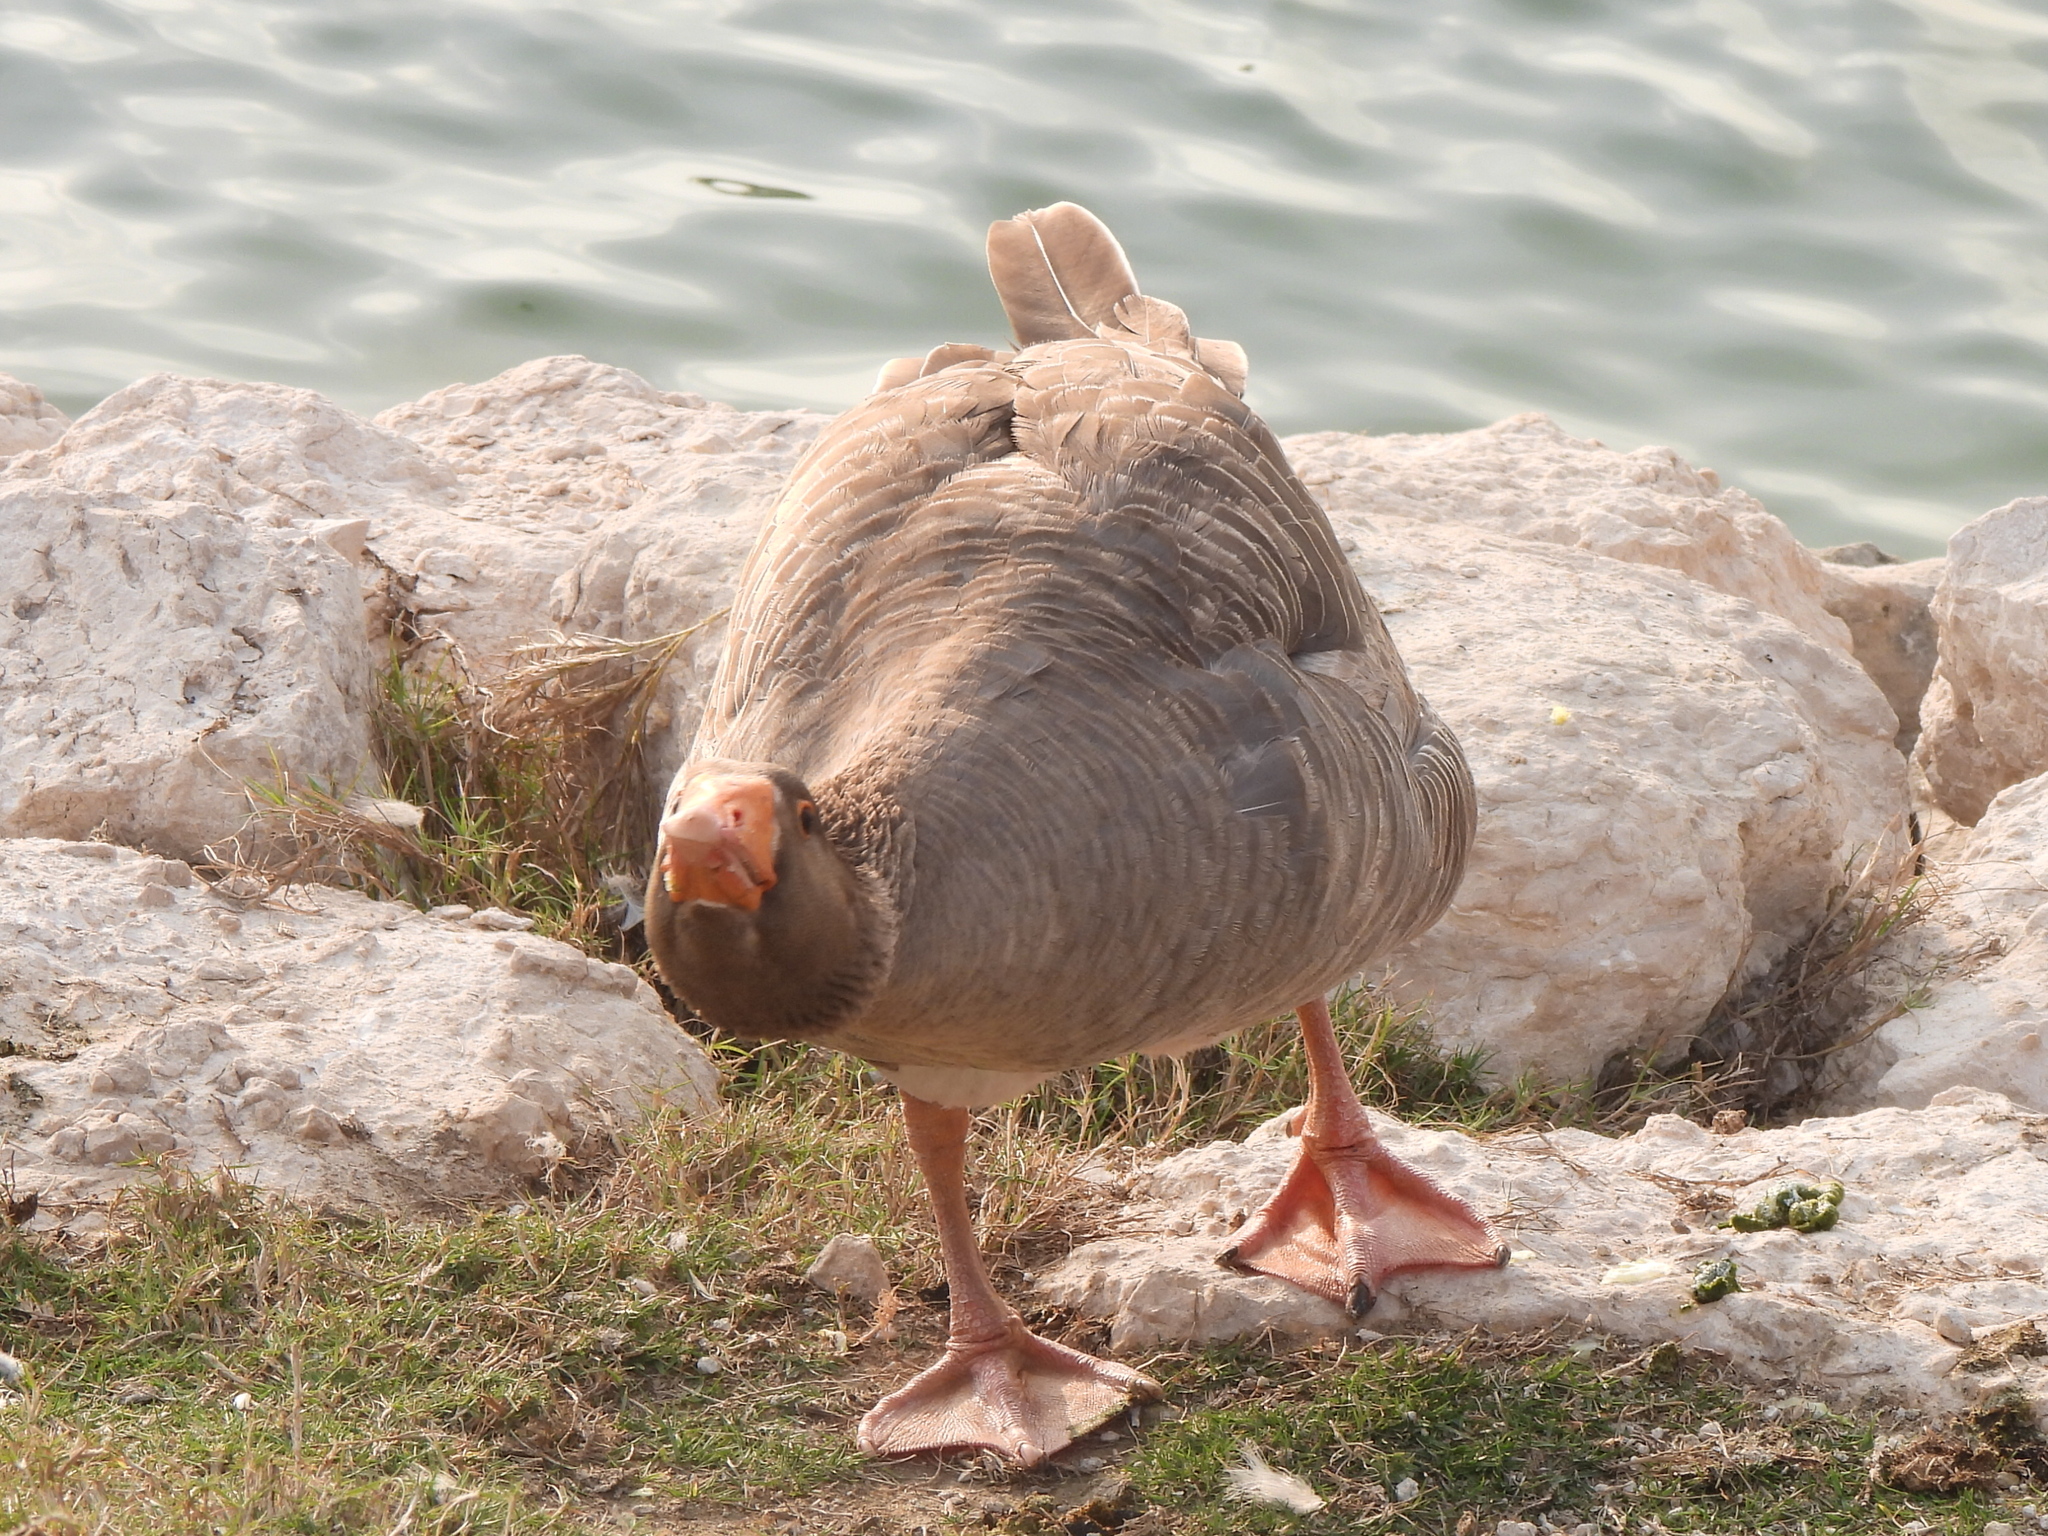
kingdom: Animalia
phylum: Chordata
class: Aves
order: Anseriformes
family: Anatidae
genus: Anser
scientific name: Anser anser
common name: Greylag goose
